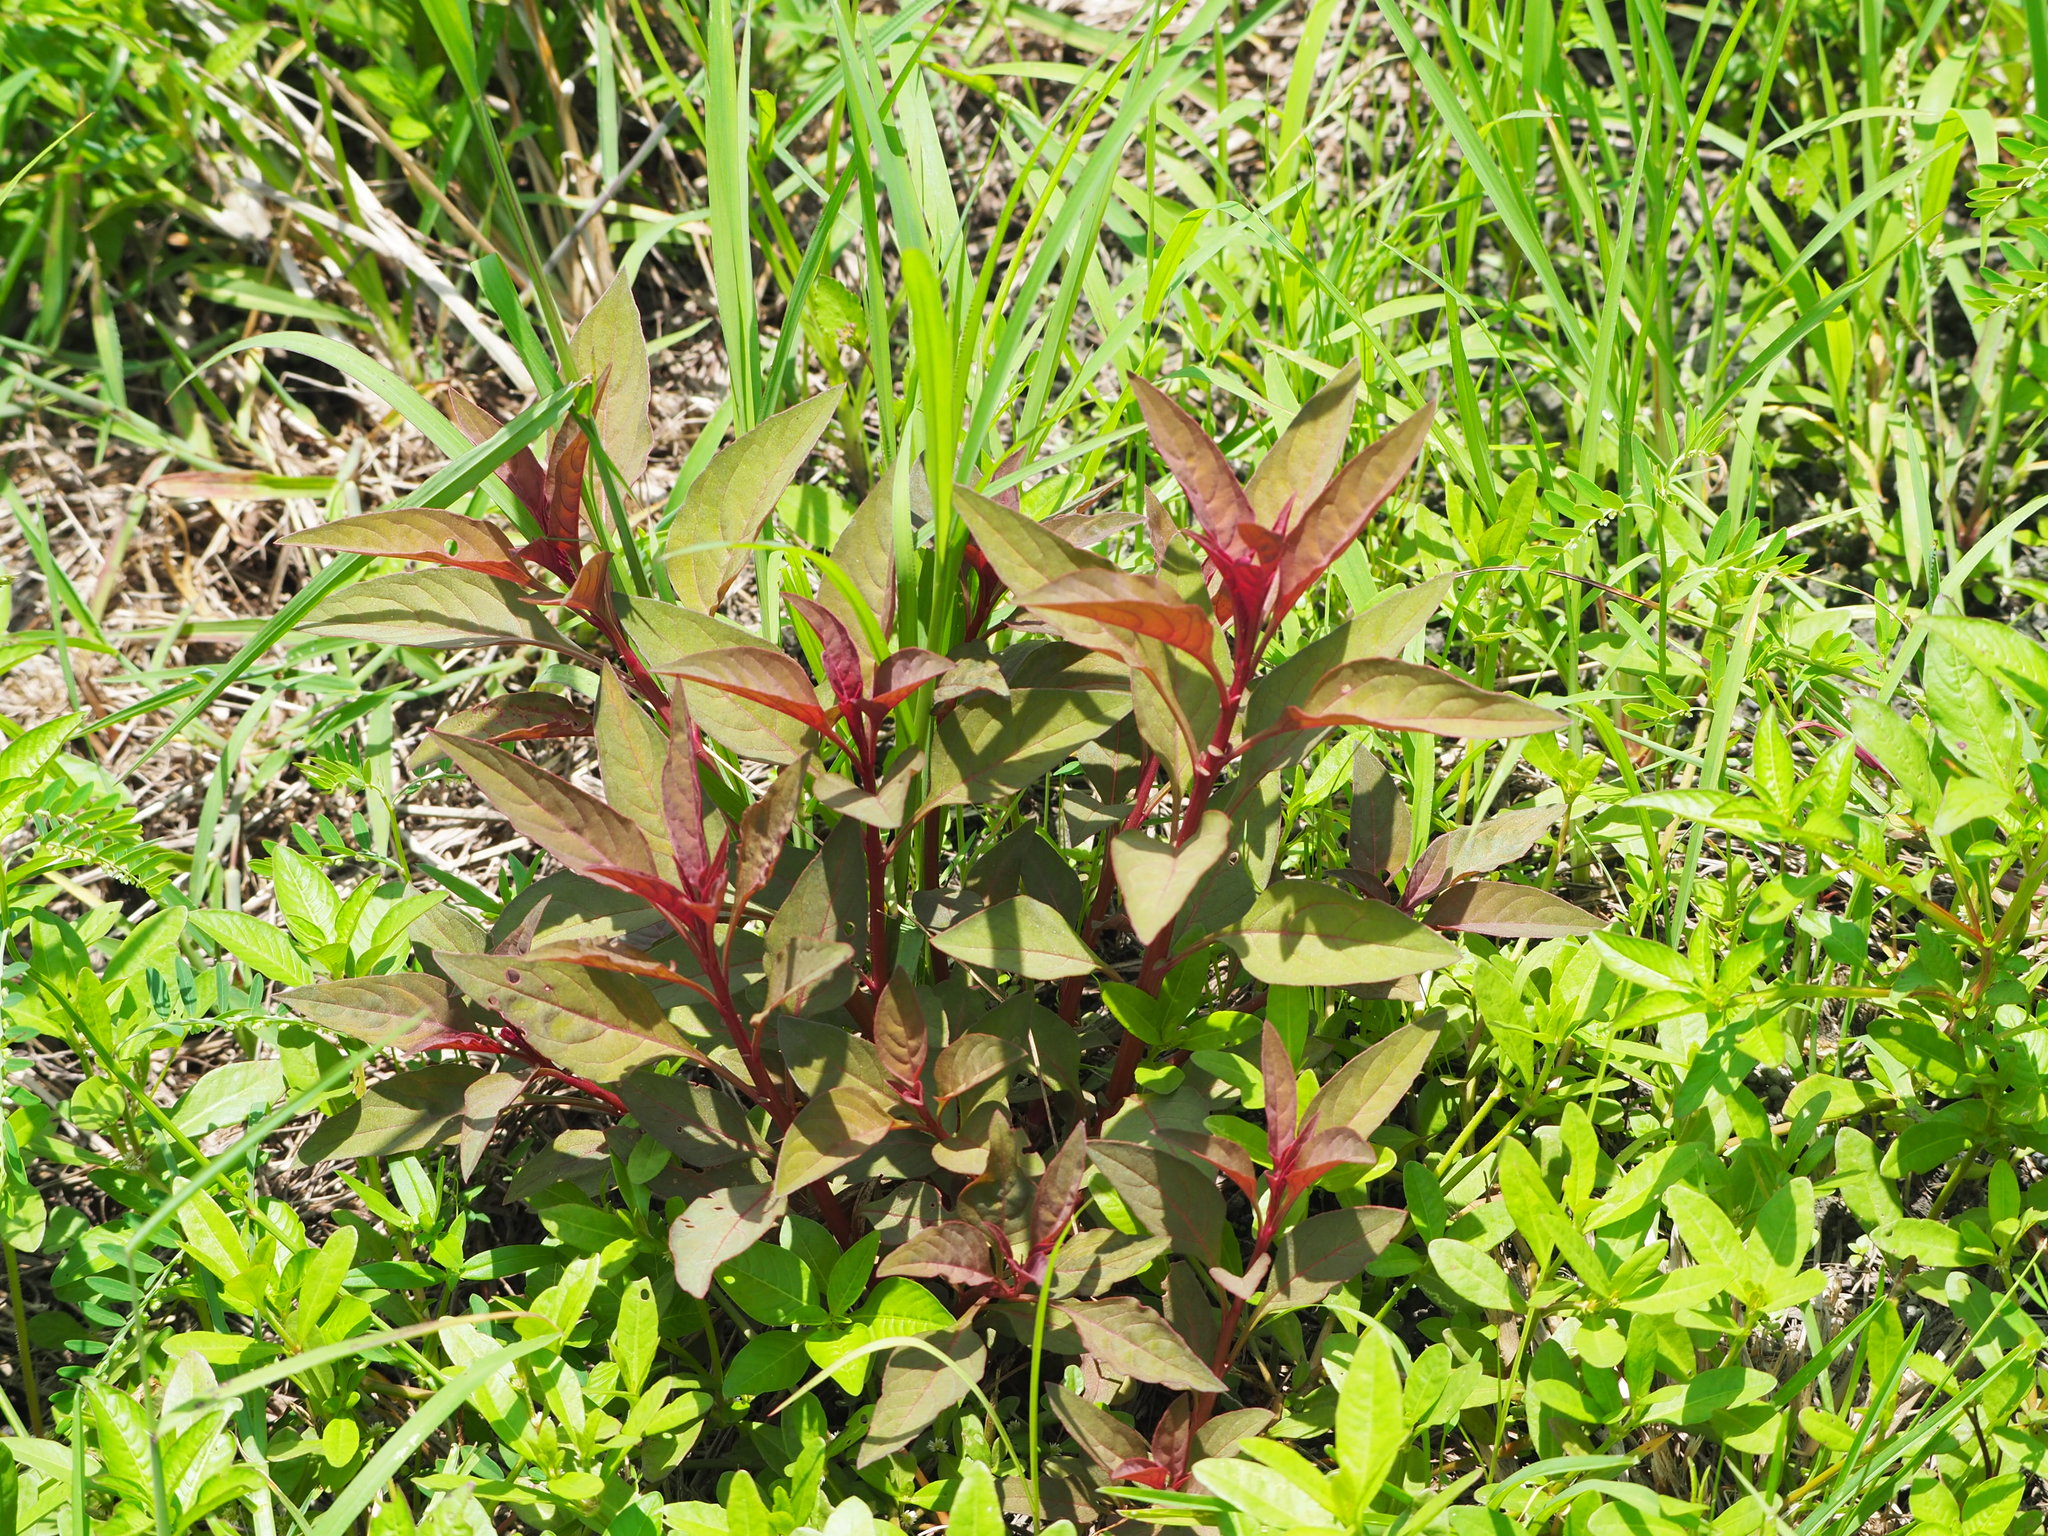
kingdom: Plantae
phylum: Tracheophyta
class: Magnoliopsida
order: Caryophyllales
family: Amaranthaceae
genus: Celosia
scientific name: Celosia argentea
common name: Feather cockscomb
